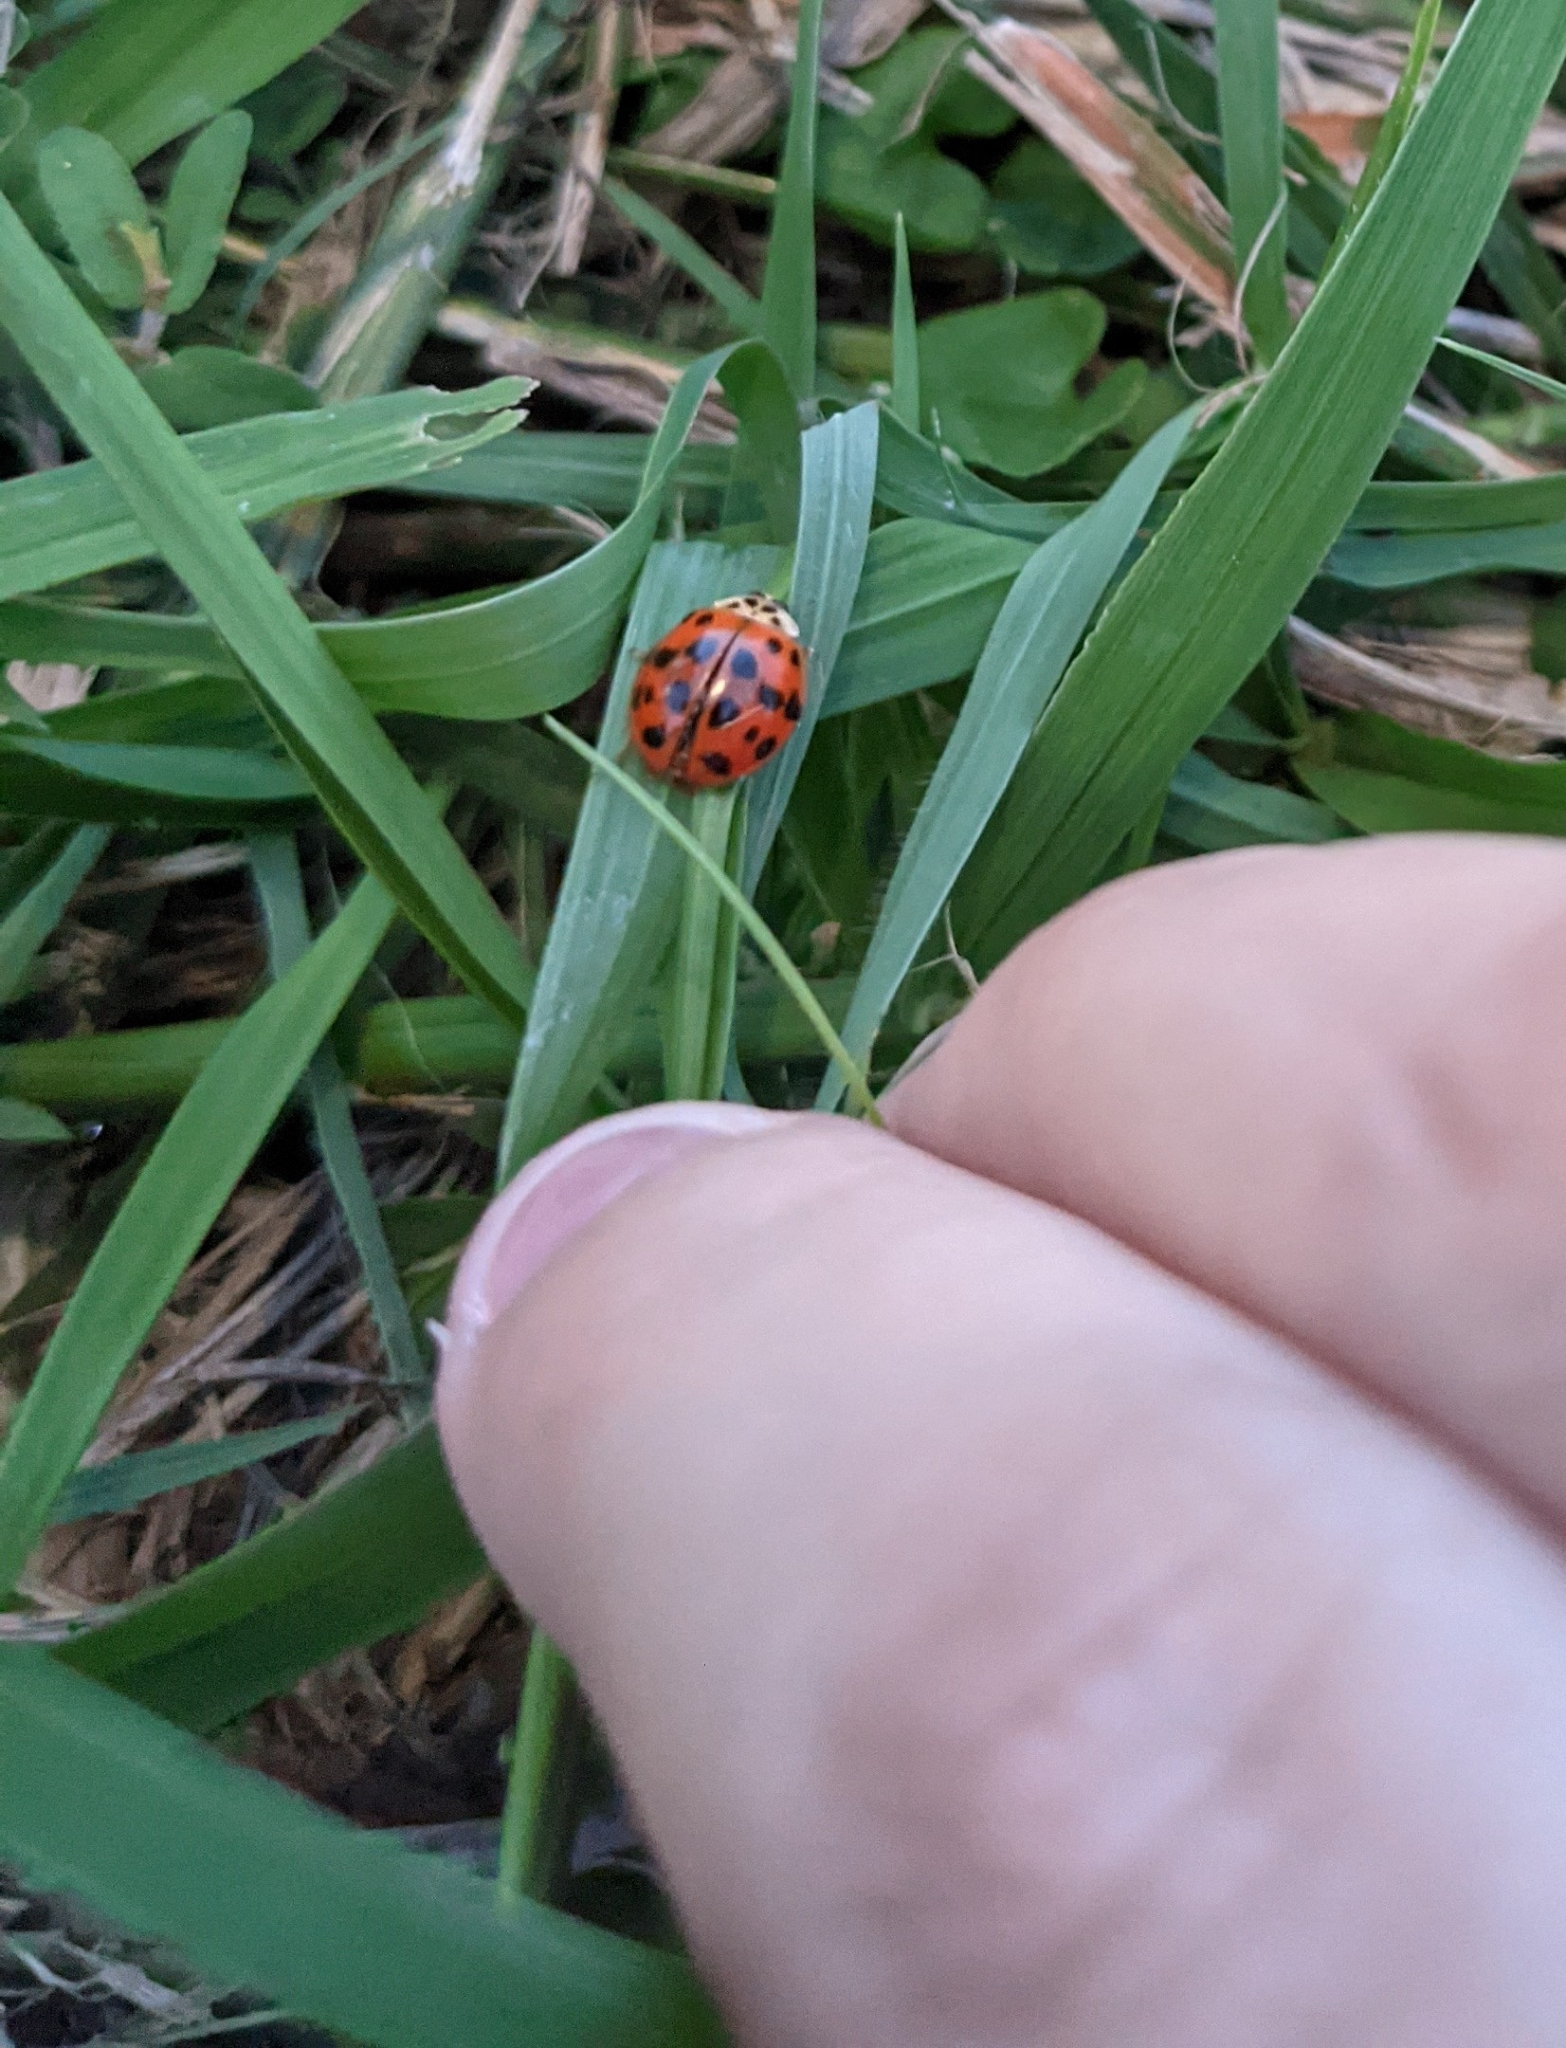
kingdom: Animalia
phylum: Arthropoda
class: Insecta
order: Coleoptera
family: Coccinellidae
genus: Harmonia
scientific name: Harmonia axyridis
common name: Harlequin ladybird
